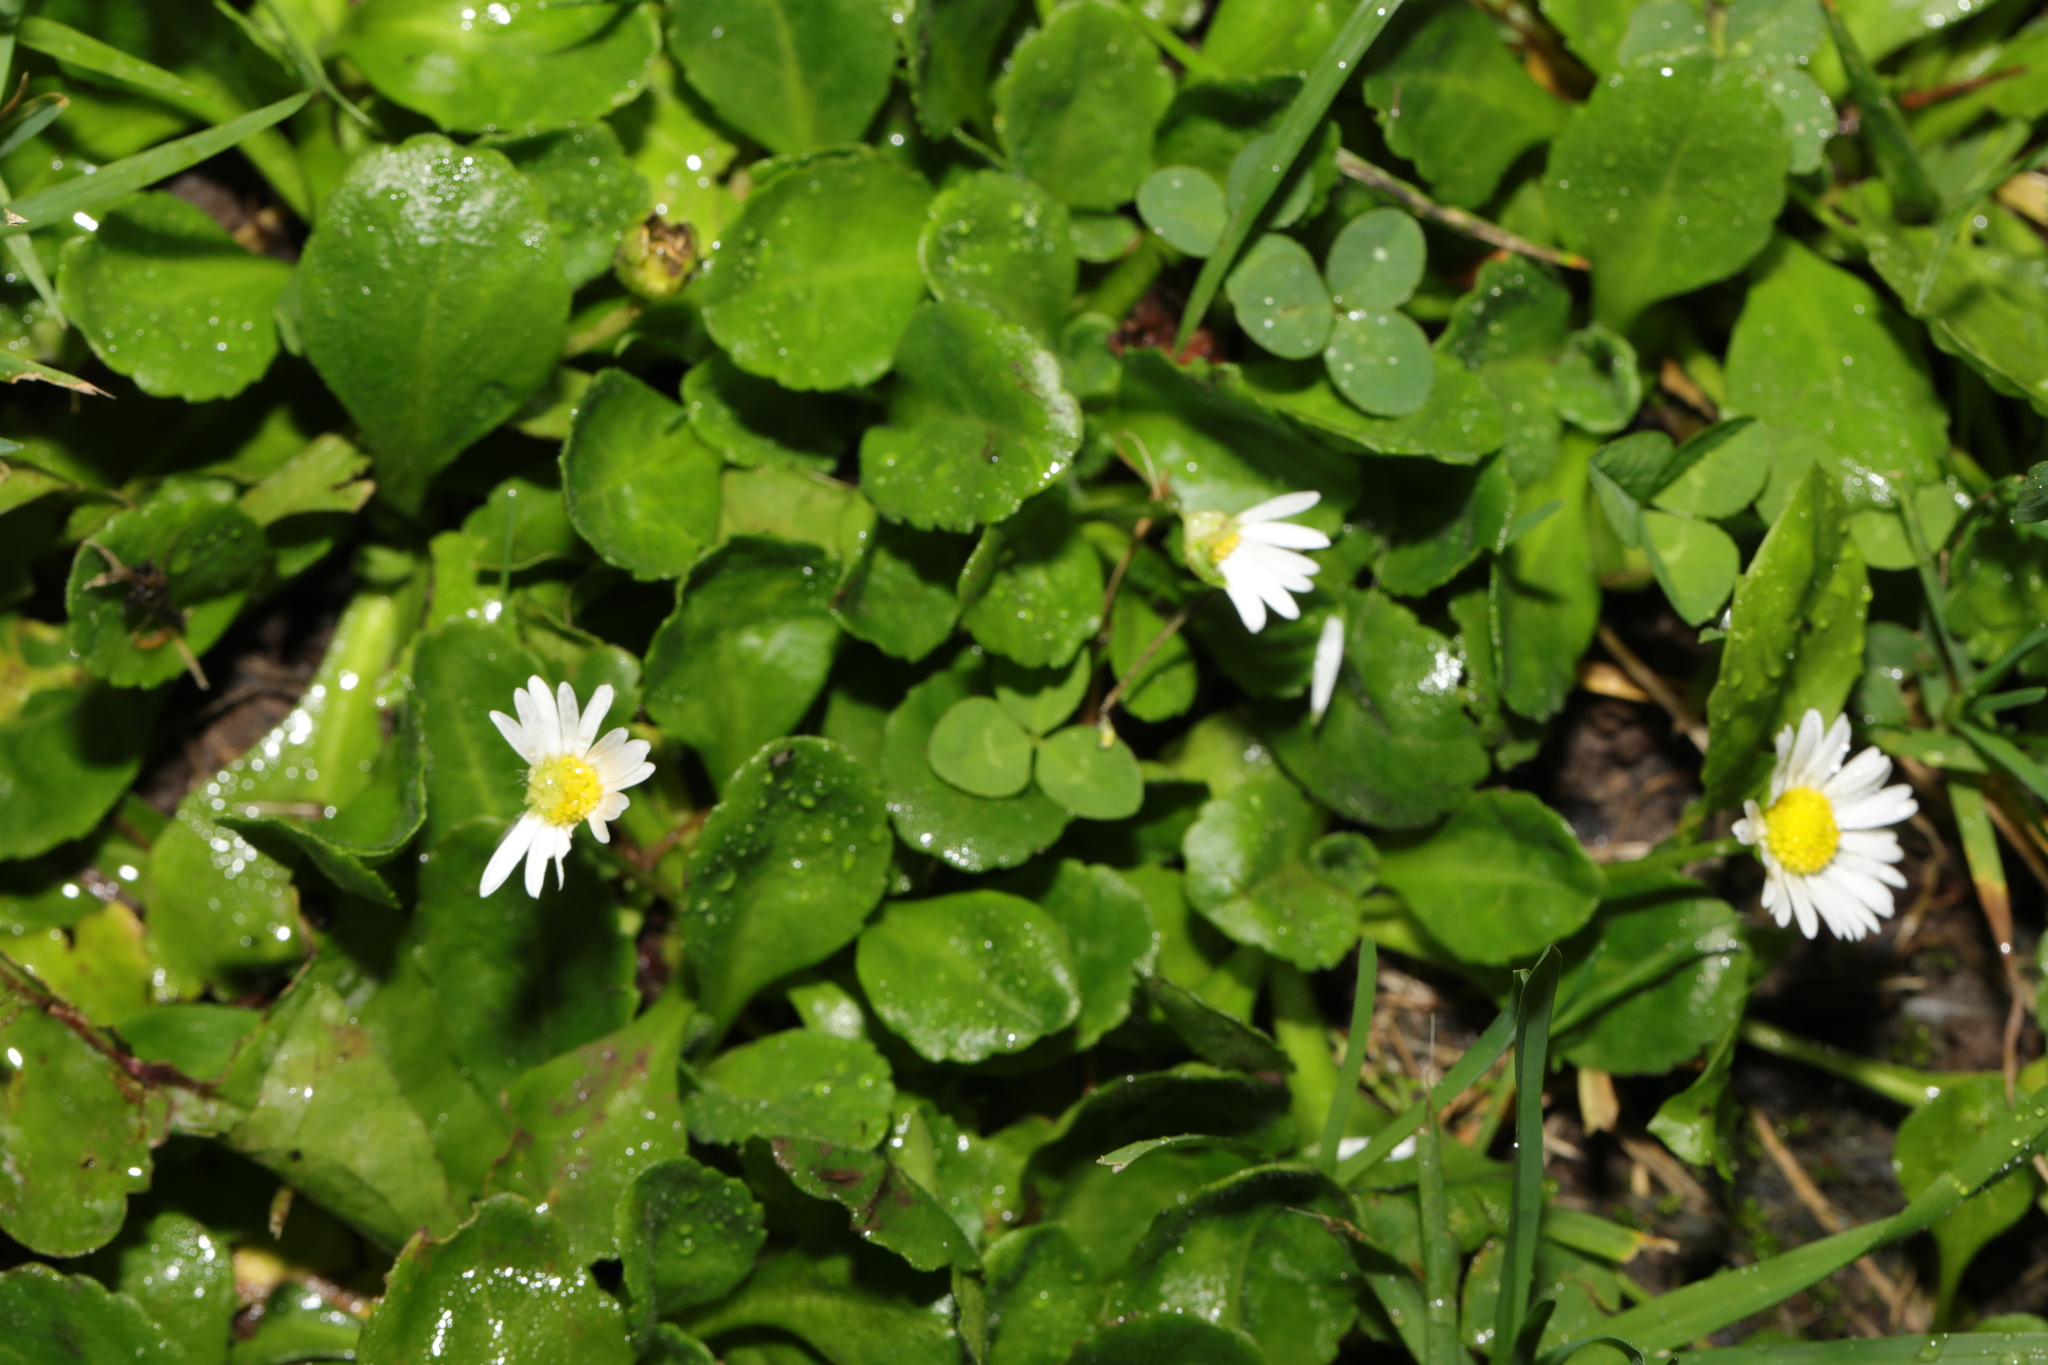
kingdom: Plantae
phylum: Tracheophyta
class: Magnoliopsida
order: Asterales
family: Asteraceae
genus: Bellis
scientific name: Bellis perennis
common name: Lawndaisy
